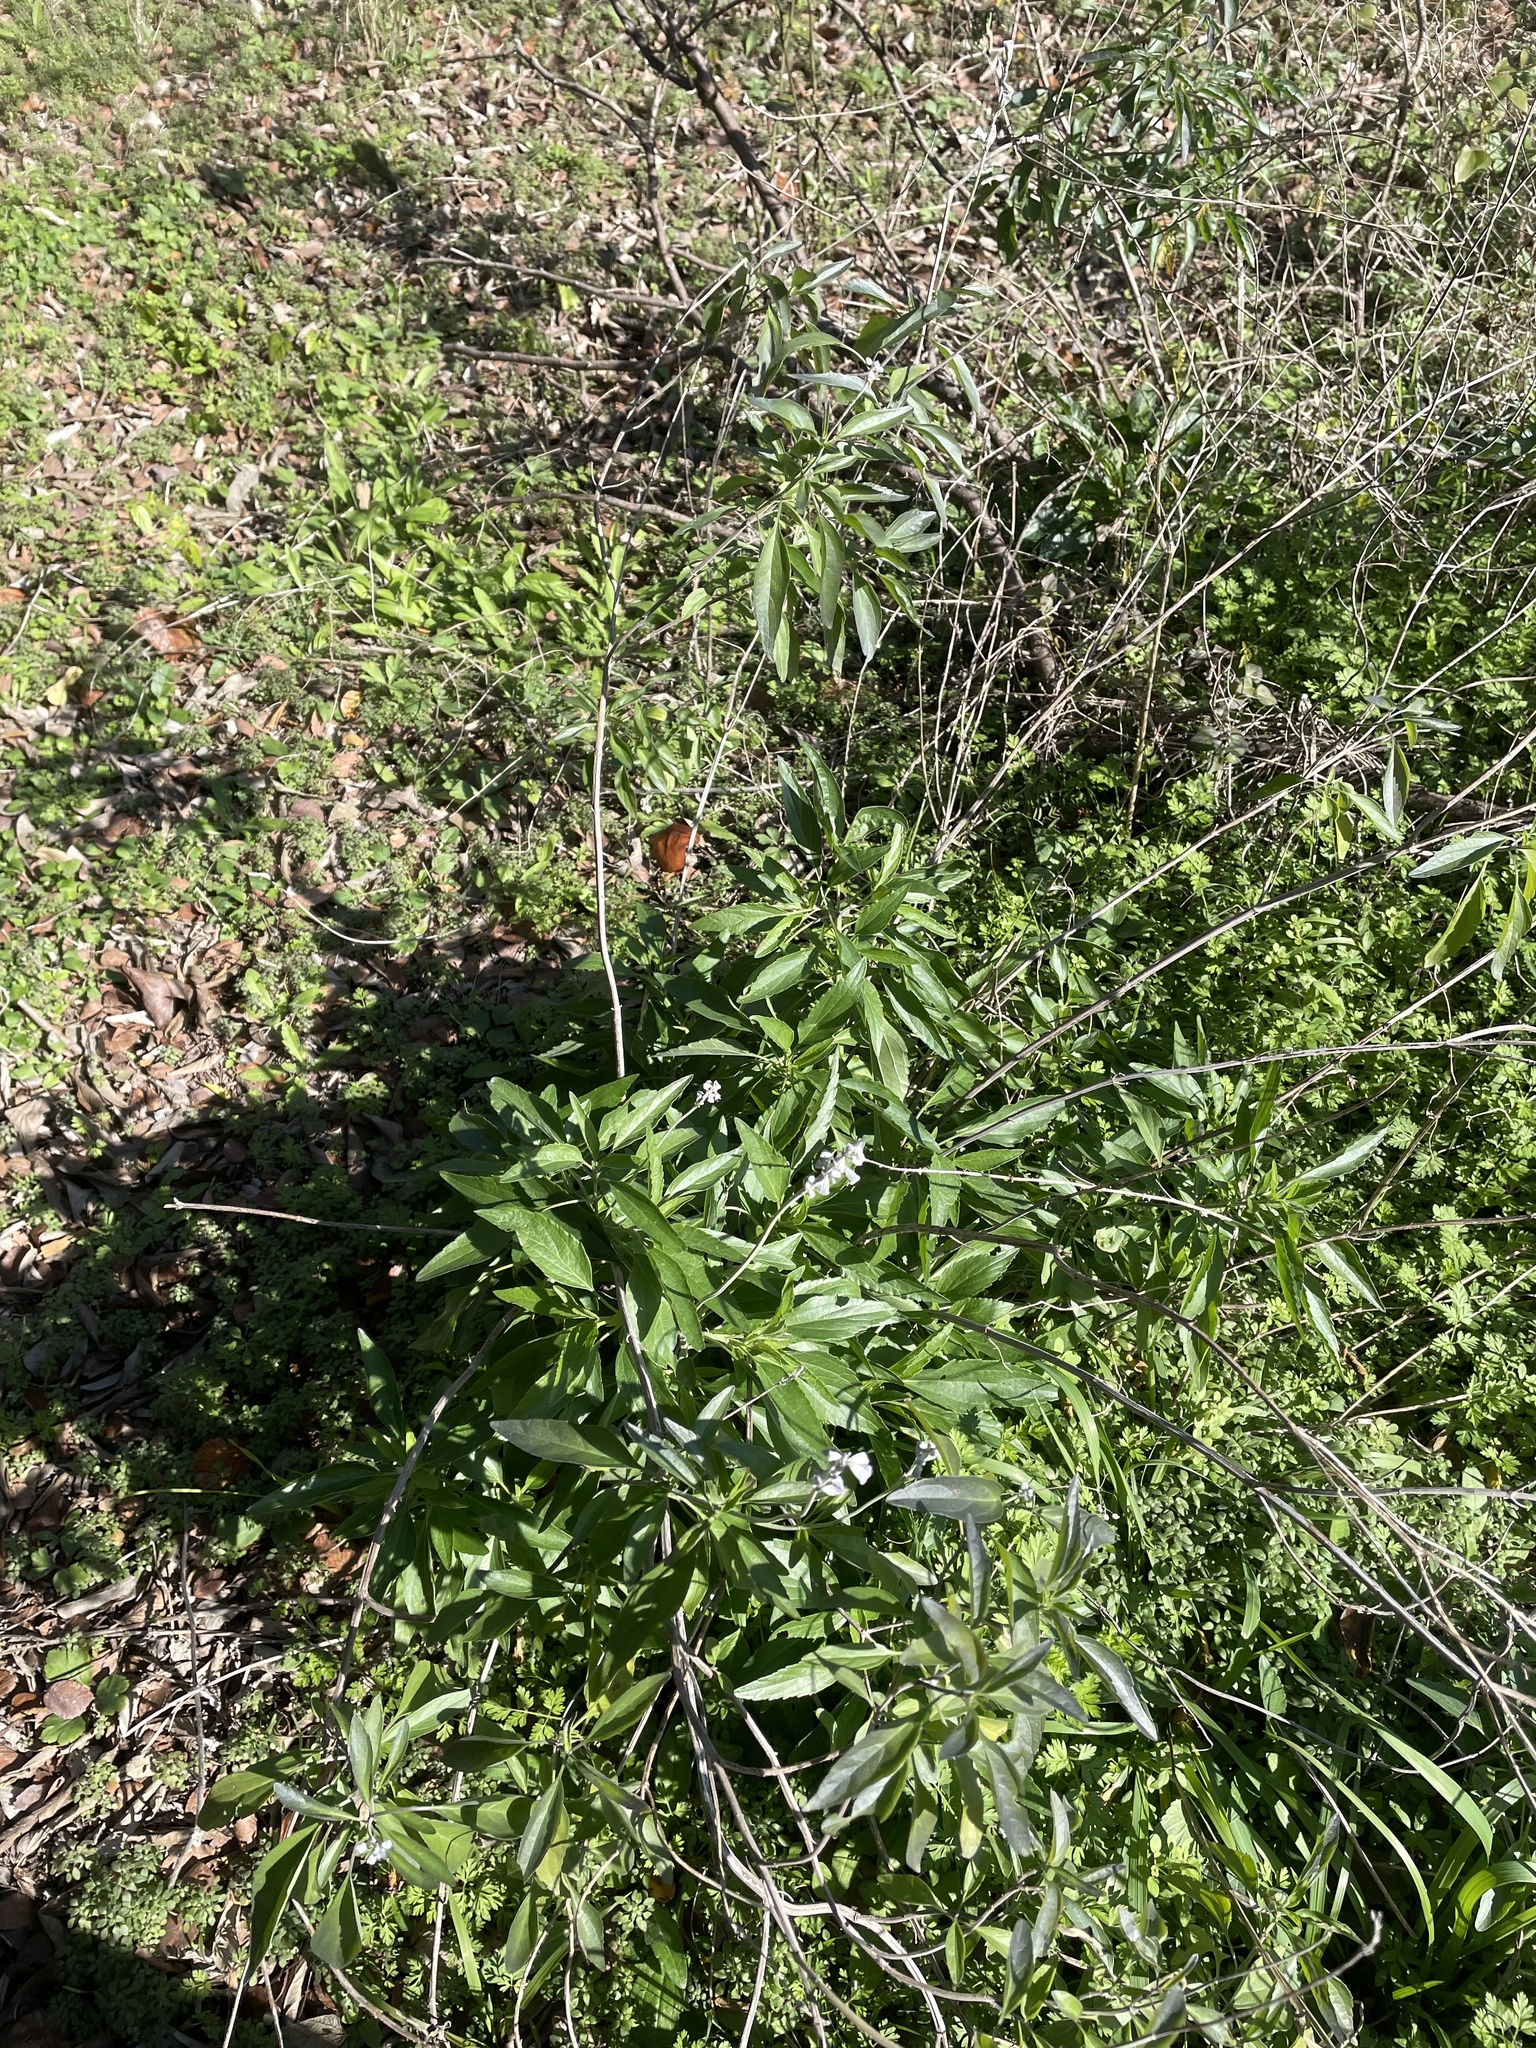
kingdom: Plantae
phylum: Tracheophyta
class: Magnoliopsida
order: Lamiales
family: Lamiaceae
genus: Salvia
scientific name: Salvia farinacea
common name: Mealy sage
